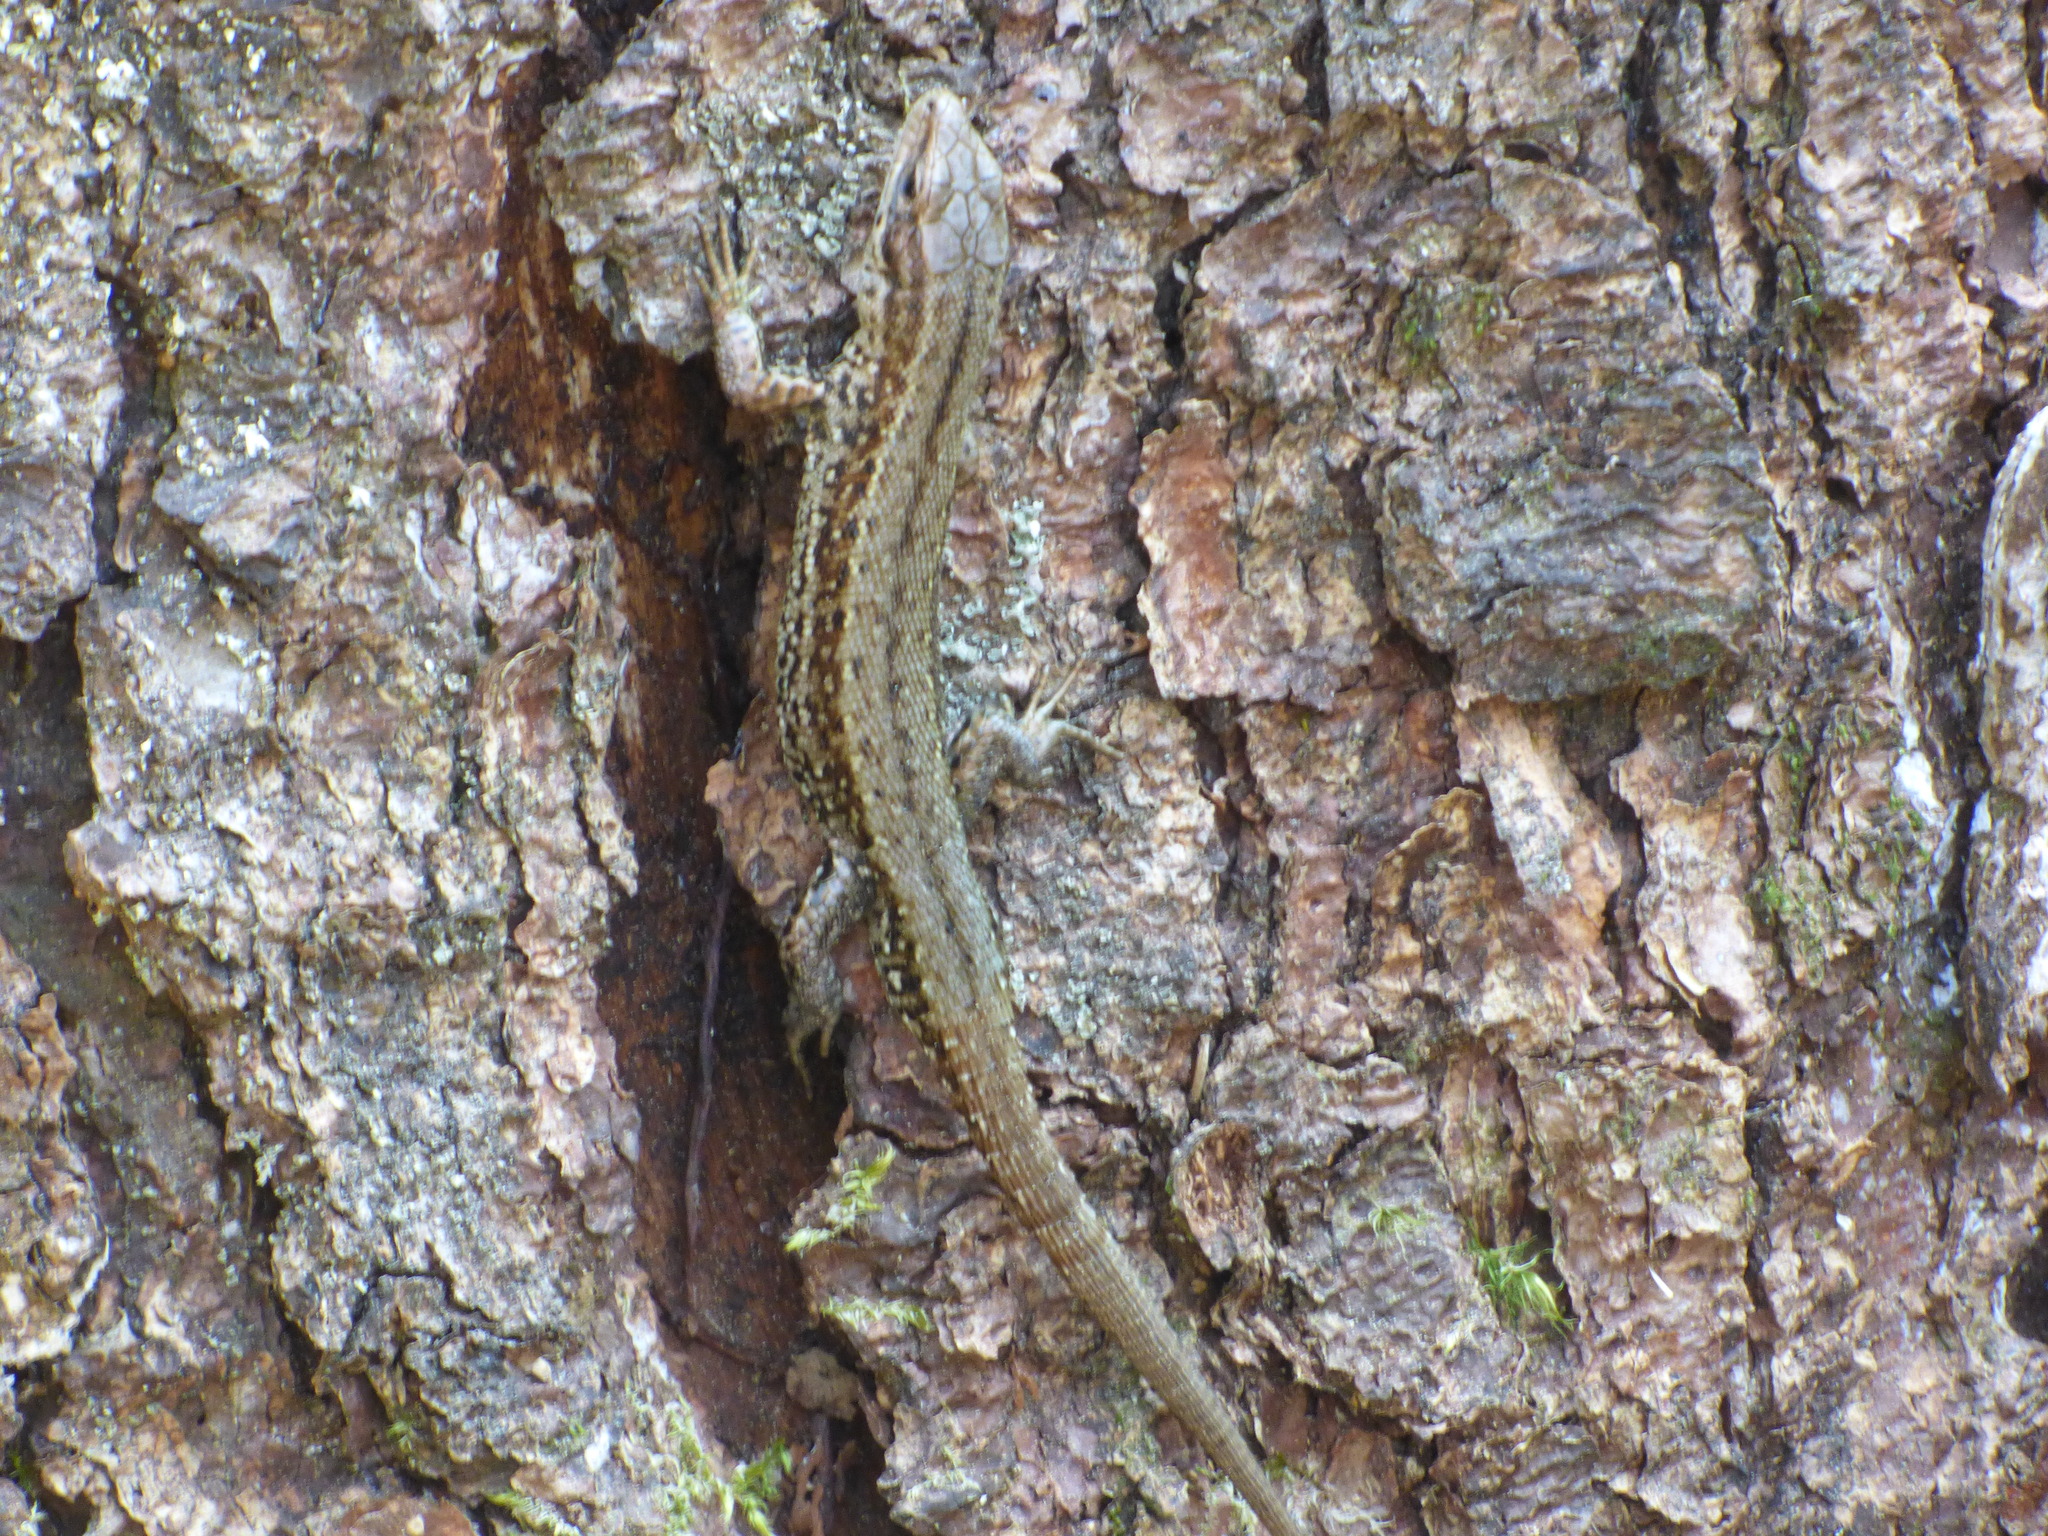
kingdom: Animalia
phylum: Chordata
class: Squamata
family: Lacertidae
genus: Zootoca
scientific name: Zootoca vivipara
